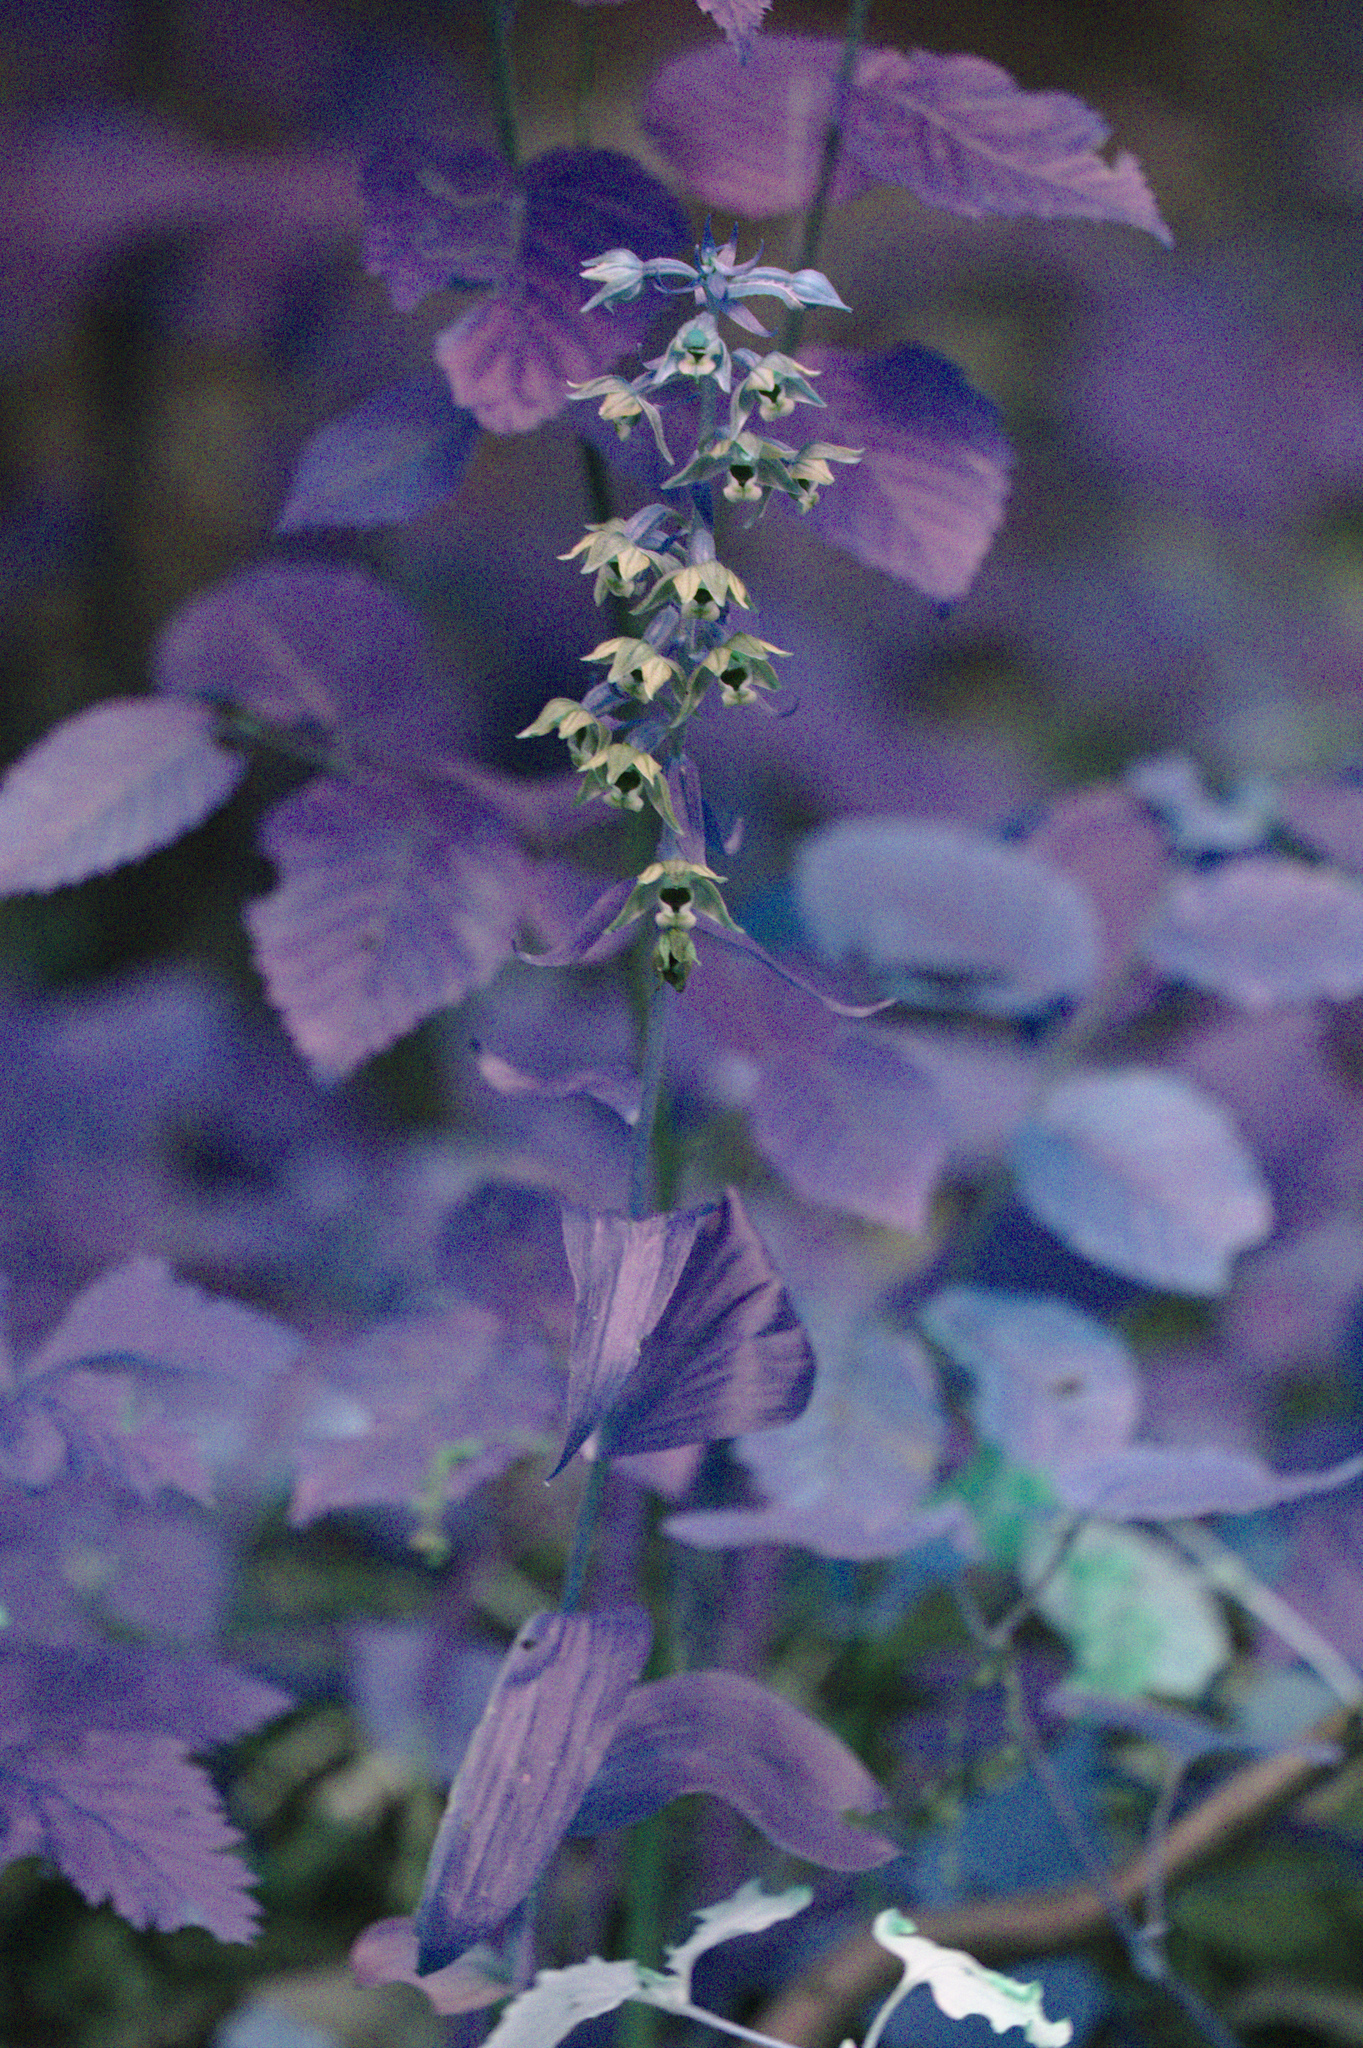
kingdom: Plantae
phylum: Tracheophyta
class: Liliopsida
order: Asparagales
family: Orchidaceae
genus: Epipactis
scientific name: Epipactis helleborine
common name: Broad-leaved helleborine
